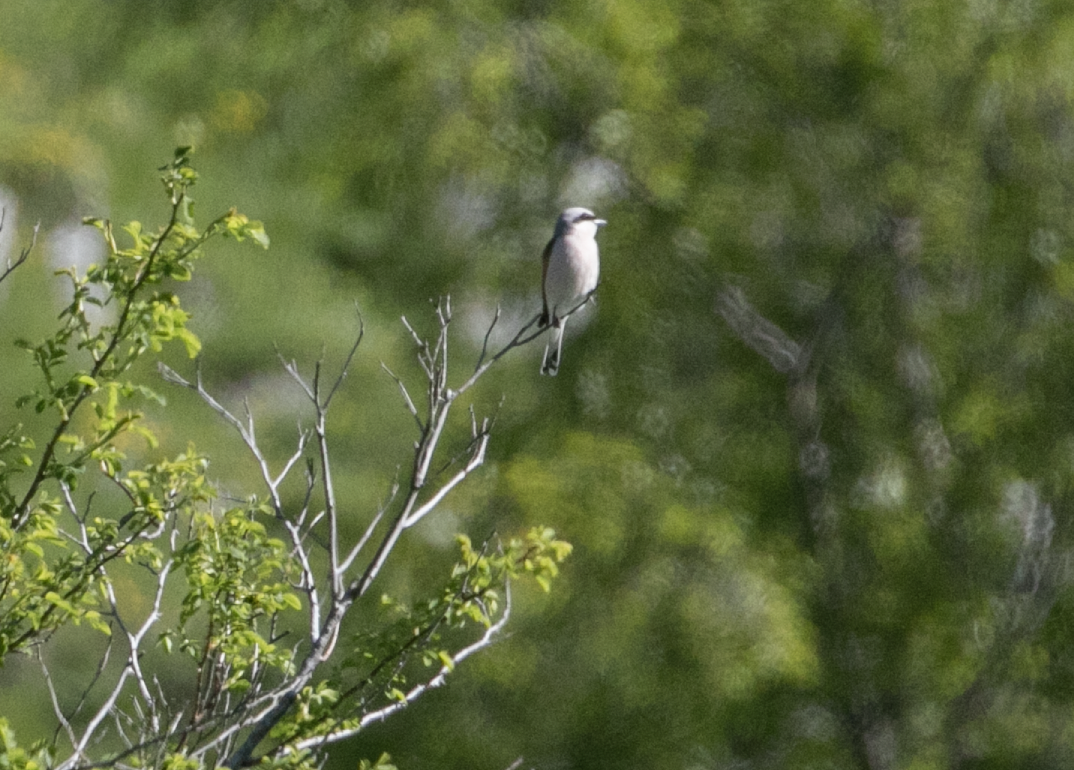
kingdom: Animalia
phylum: Chordata
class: Aves
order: Passeriformes
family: Laniidae
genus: Lanius
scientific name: Lanius collurio
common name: Red-backed shrike
